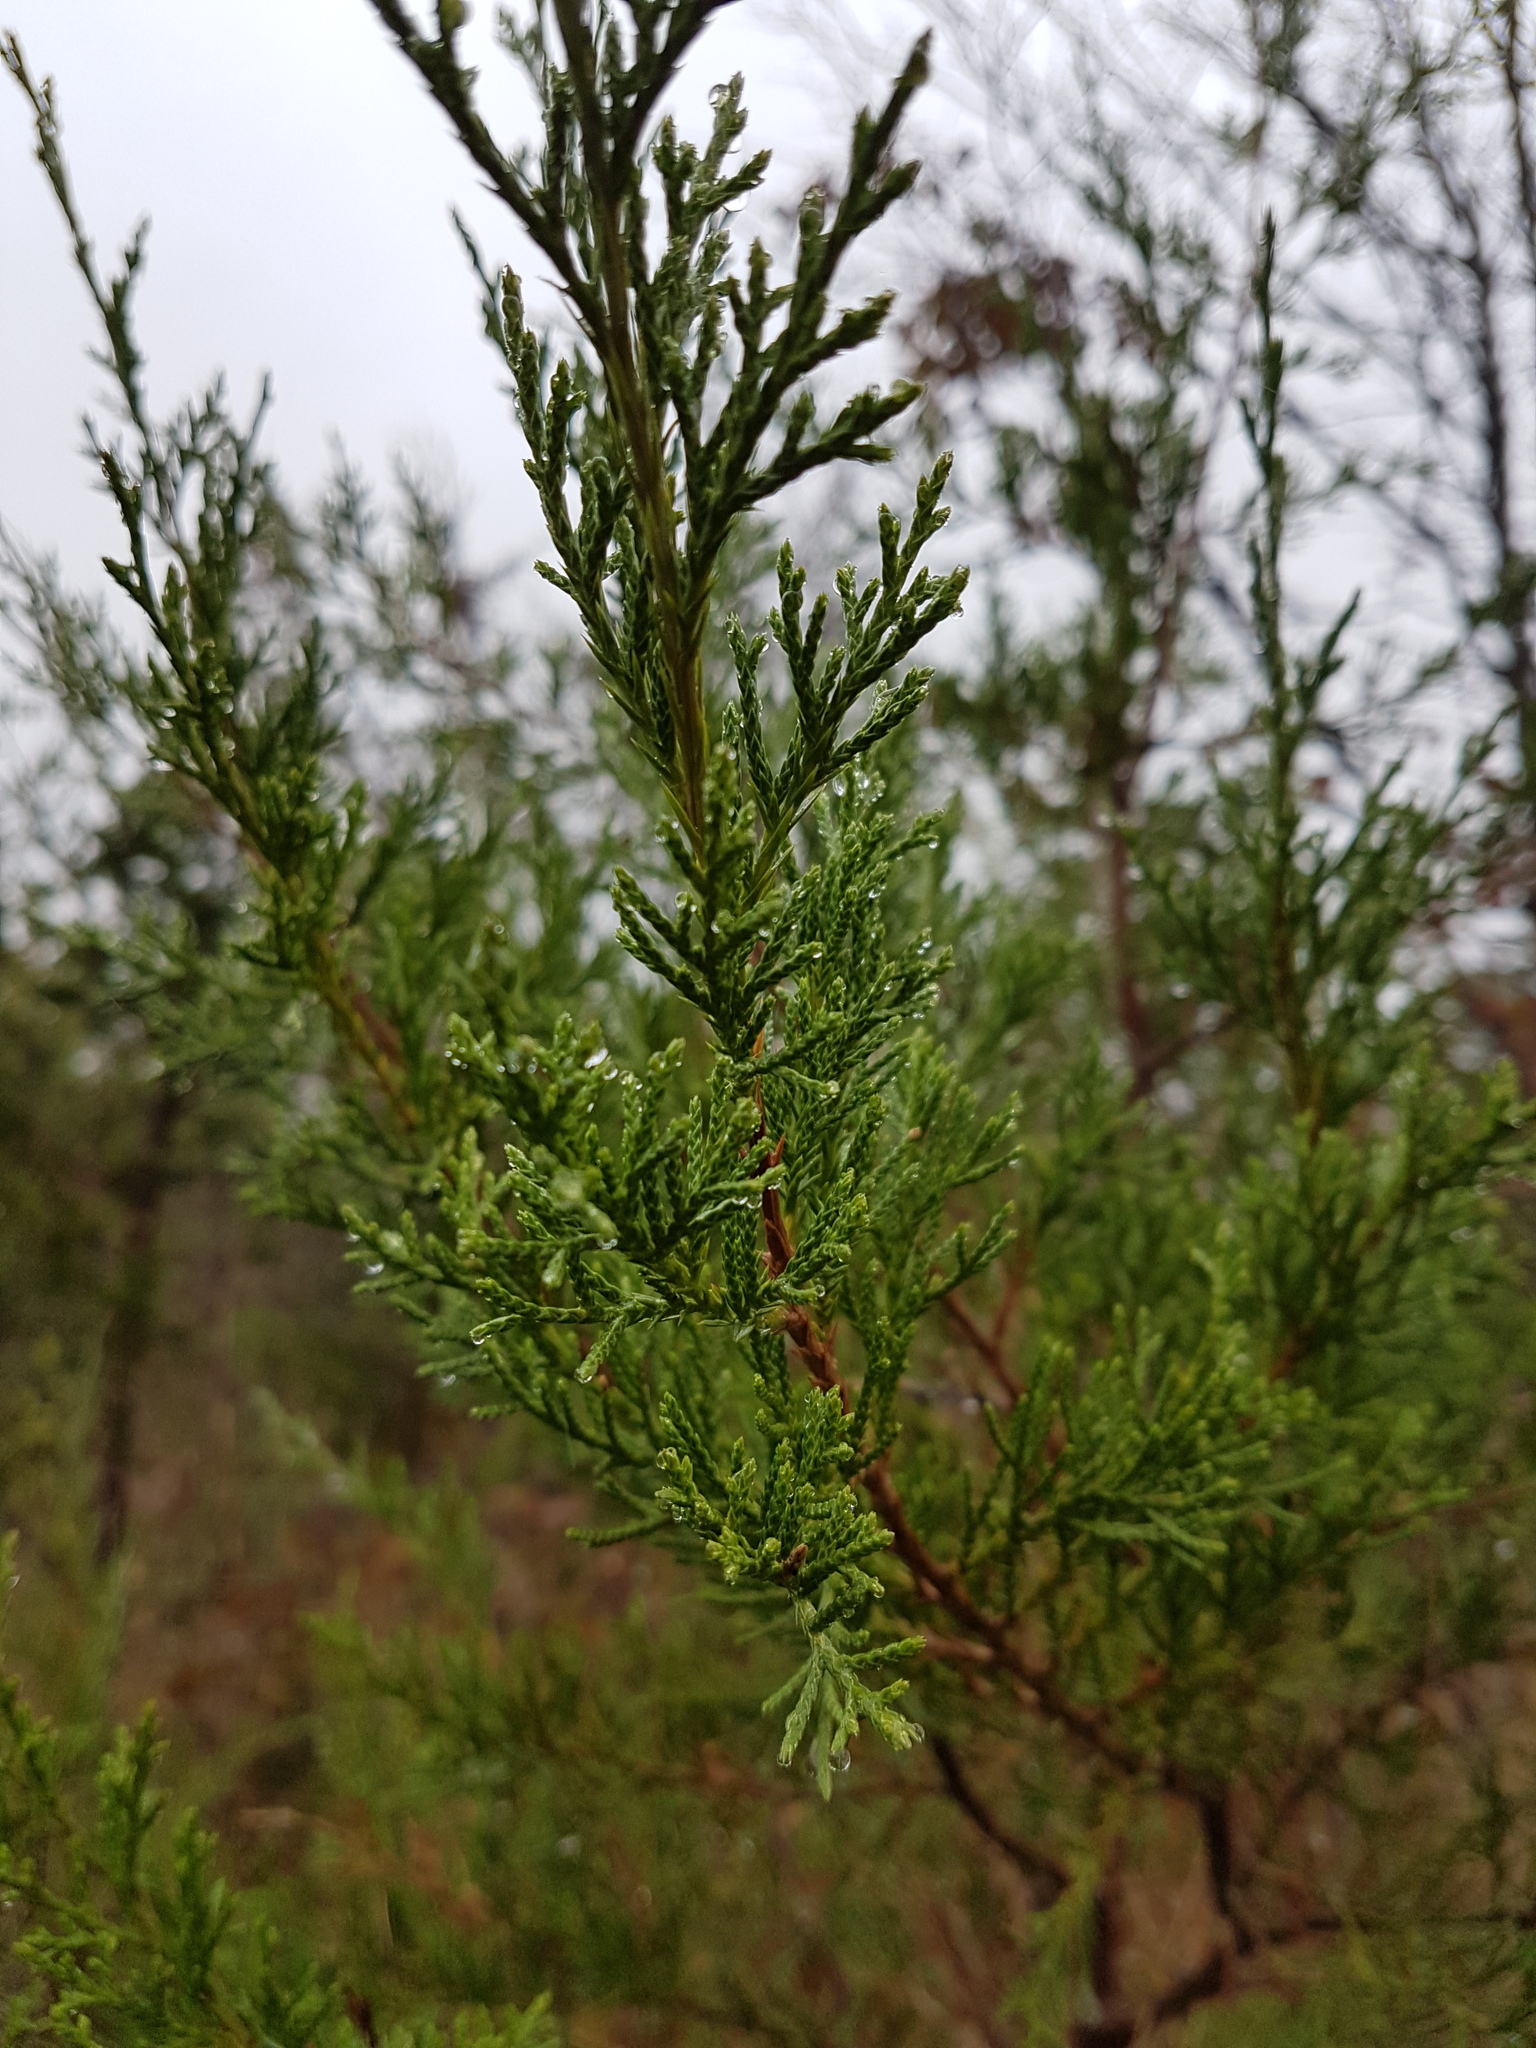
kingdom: Plantae
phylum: Tracheophyta
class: Pinopsida
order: Pinales
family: Cupressaceae
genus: Juniperus
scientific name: Juniperus virginiana
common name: Red juniper
